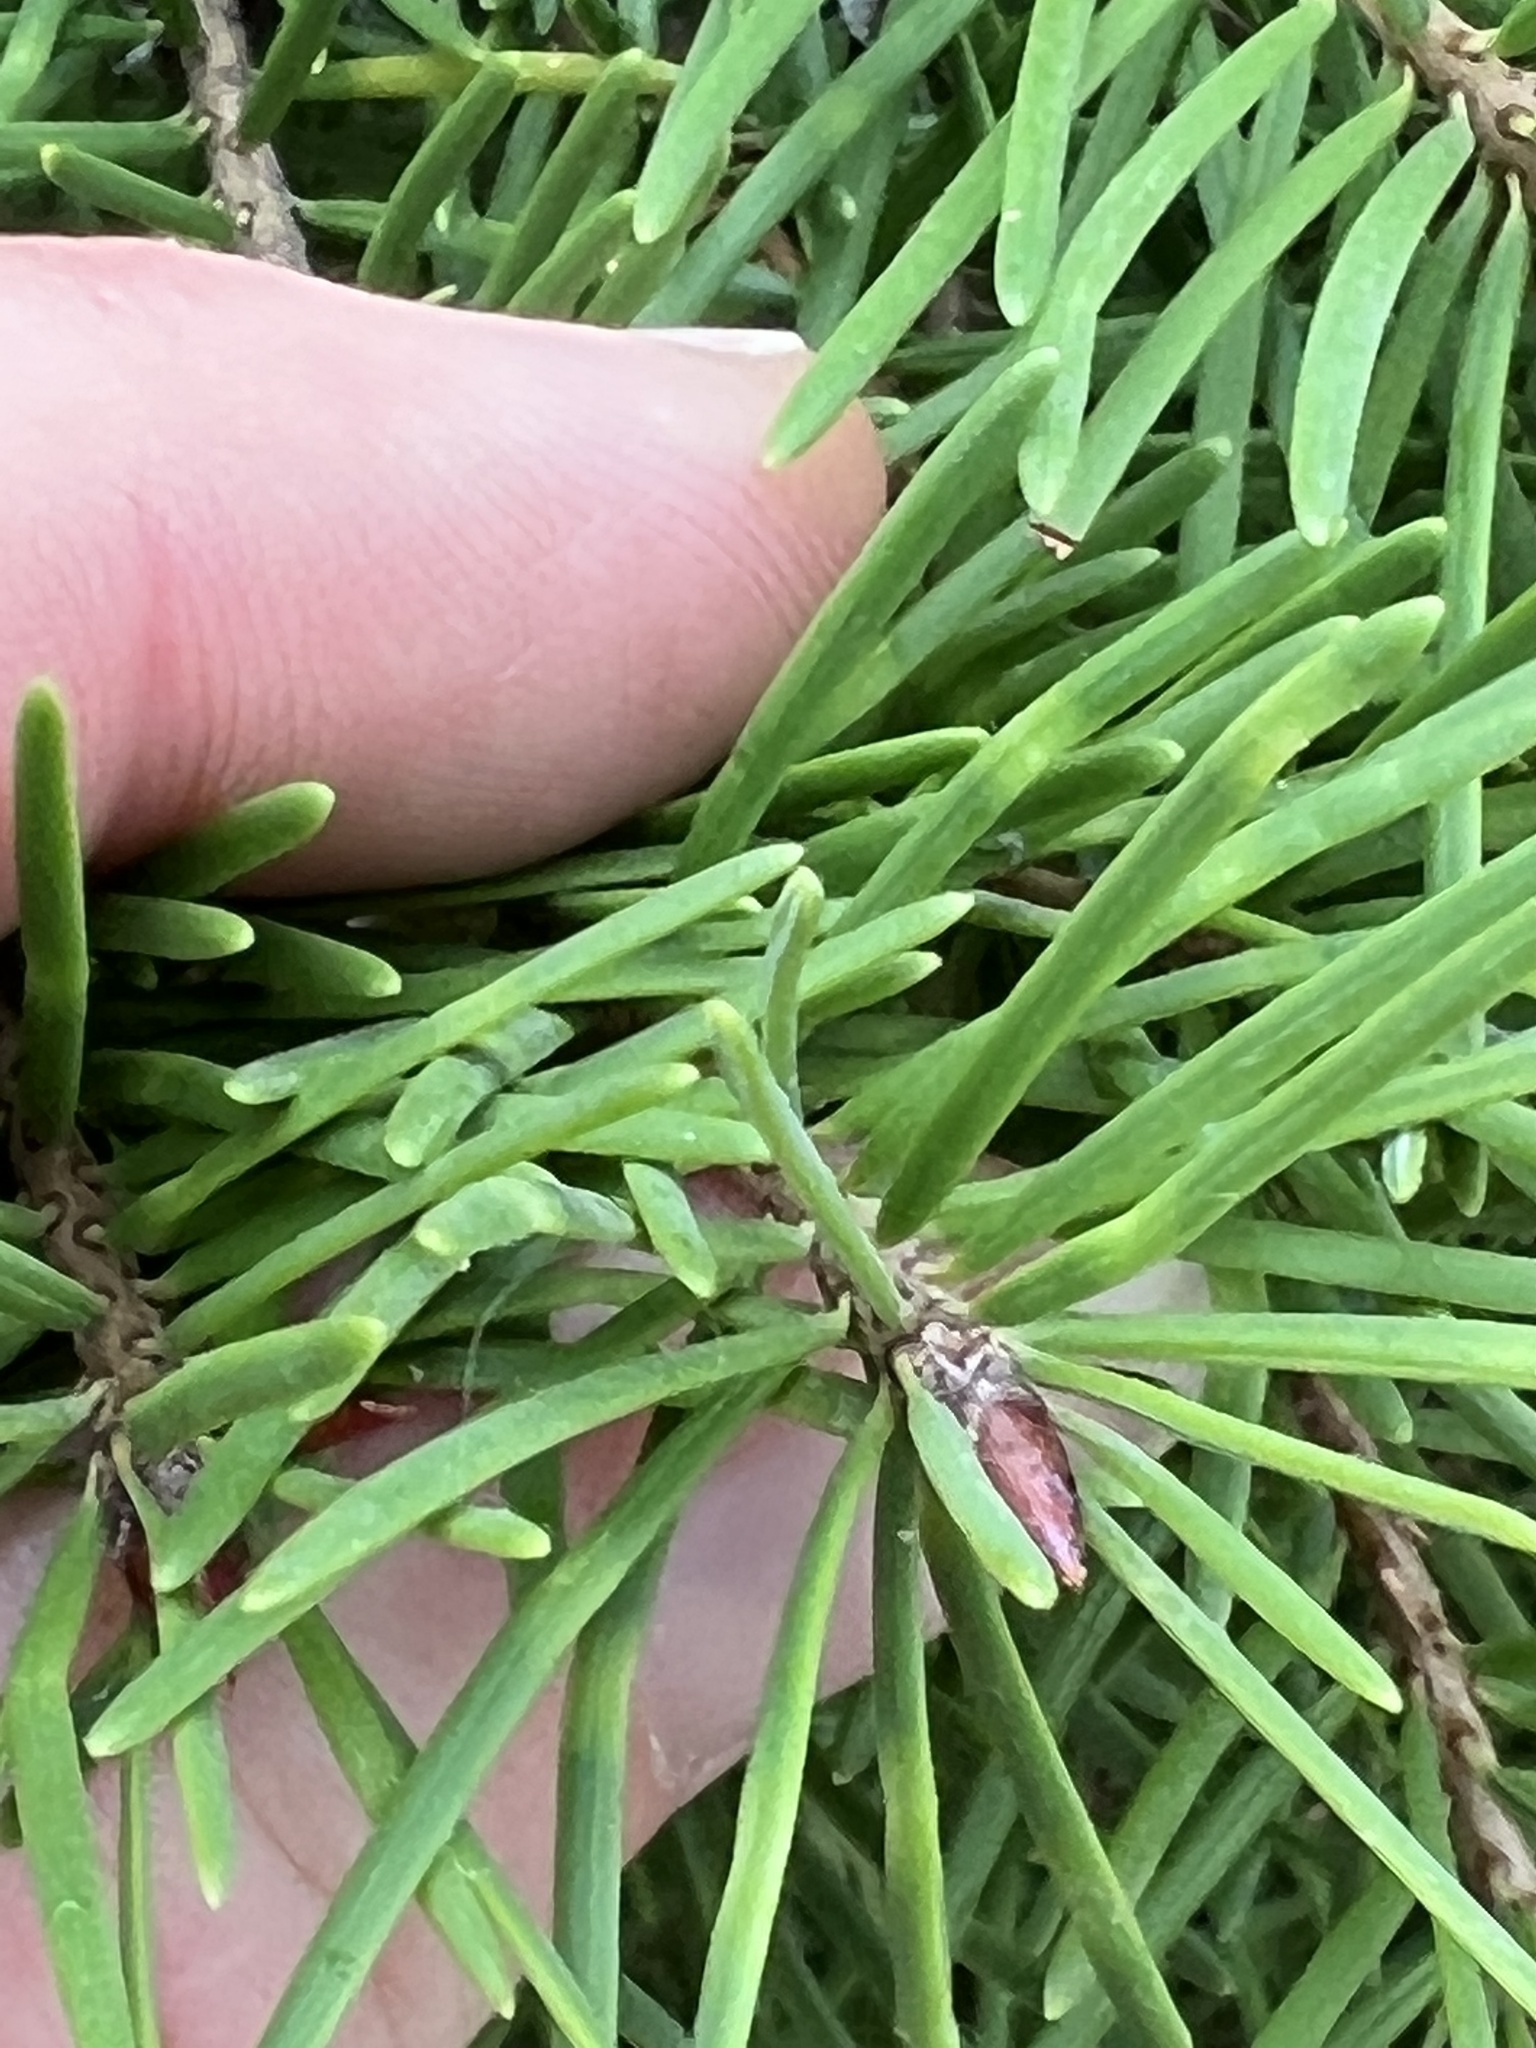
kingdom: Plantae
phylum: Tracheophyta
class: Pinopsida
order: Pinales
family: Pinaceae
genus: Pseudotsuga
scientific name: Pseudotsuga menziesii
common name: Douglas fir
